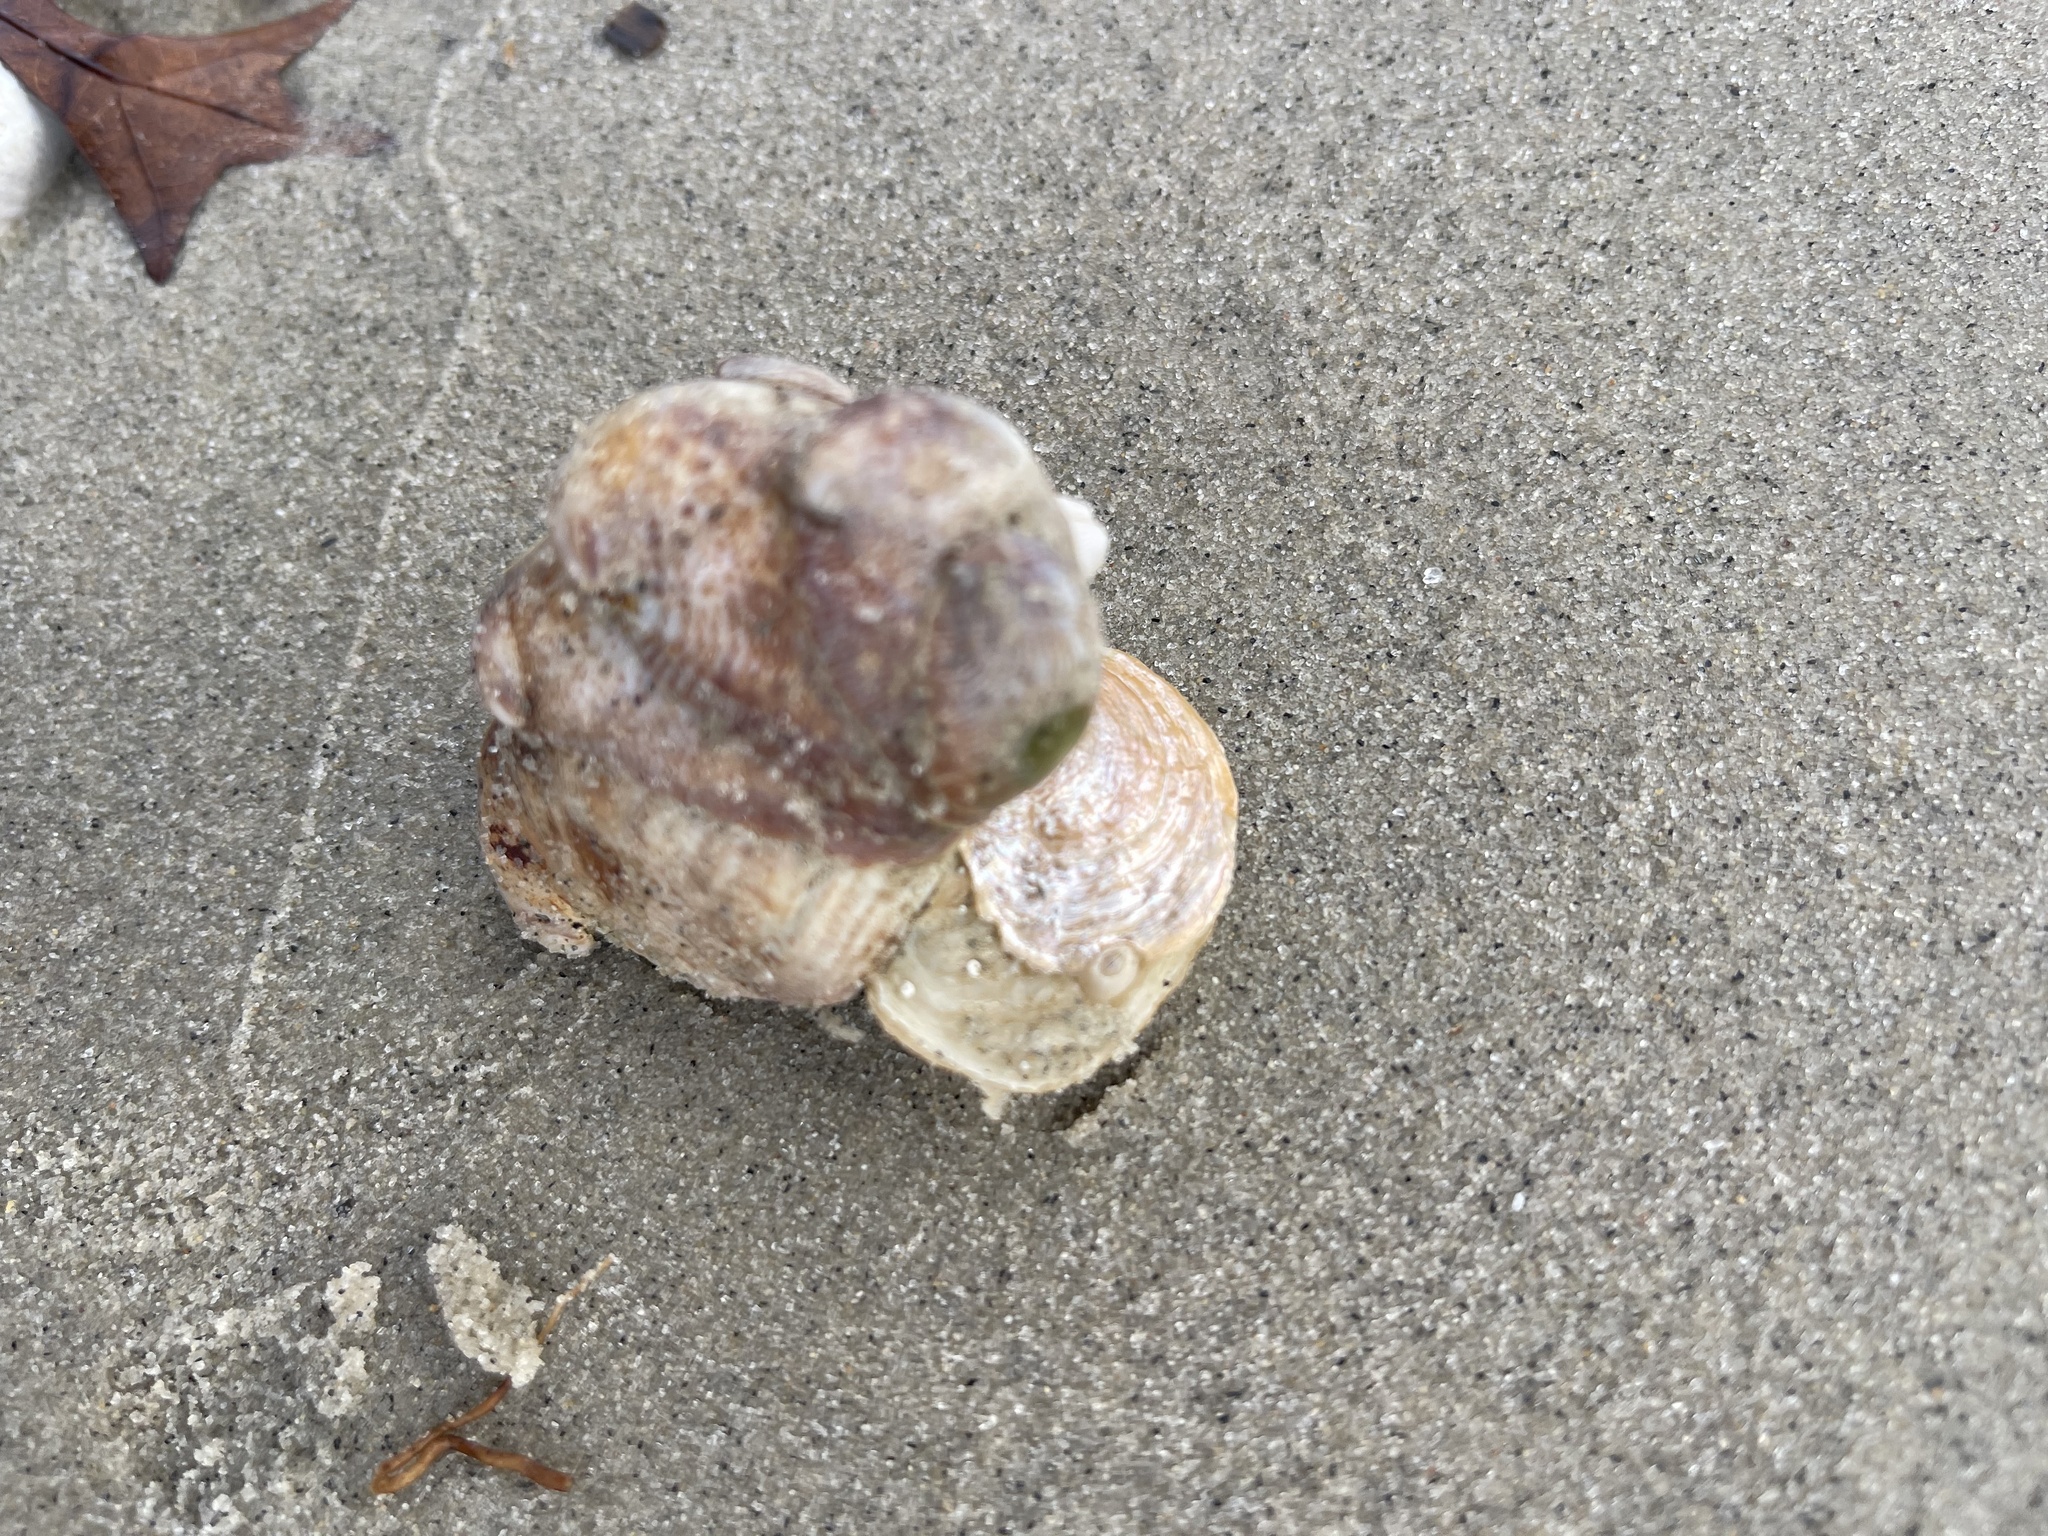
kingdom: Animalia
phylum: Mollusca
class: Bivalvia
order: Pectinida
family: Anomiidae
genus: Anomia
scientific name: Anomia simplex
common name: Common jingle shell
